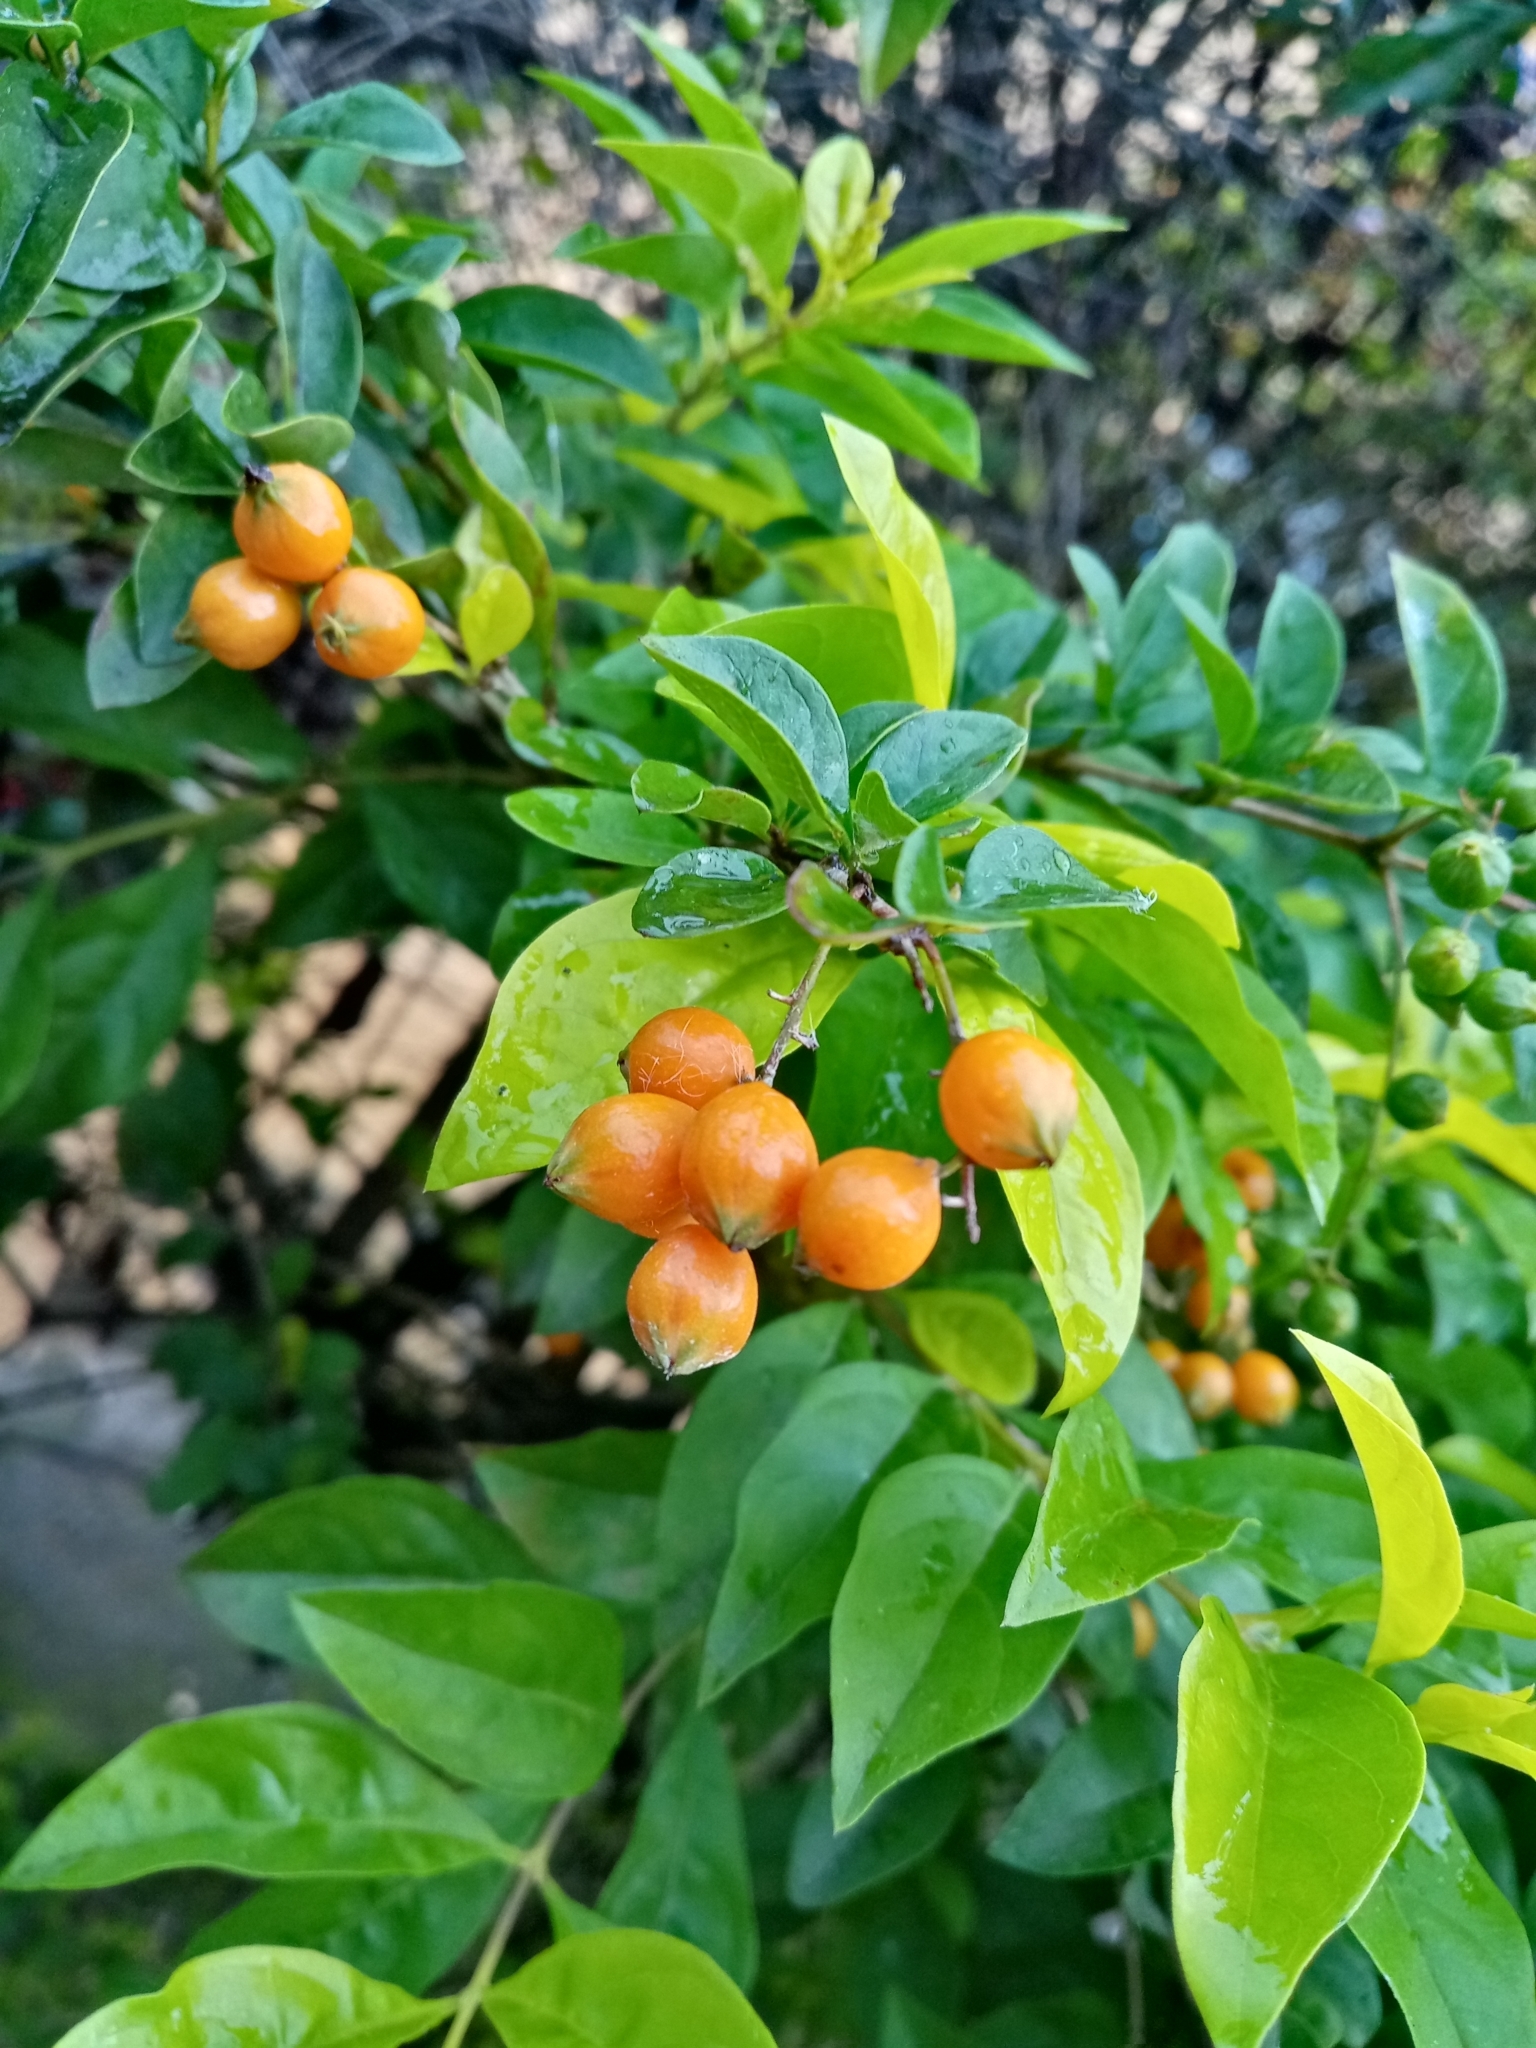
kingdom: Plantae
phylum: Tracheophyta
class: Magnoliopsida
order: Lamiales
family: Verbenaceae
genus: Duranta
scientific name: Duranta mutisii
